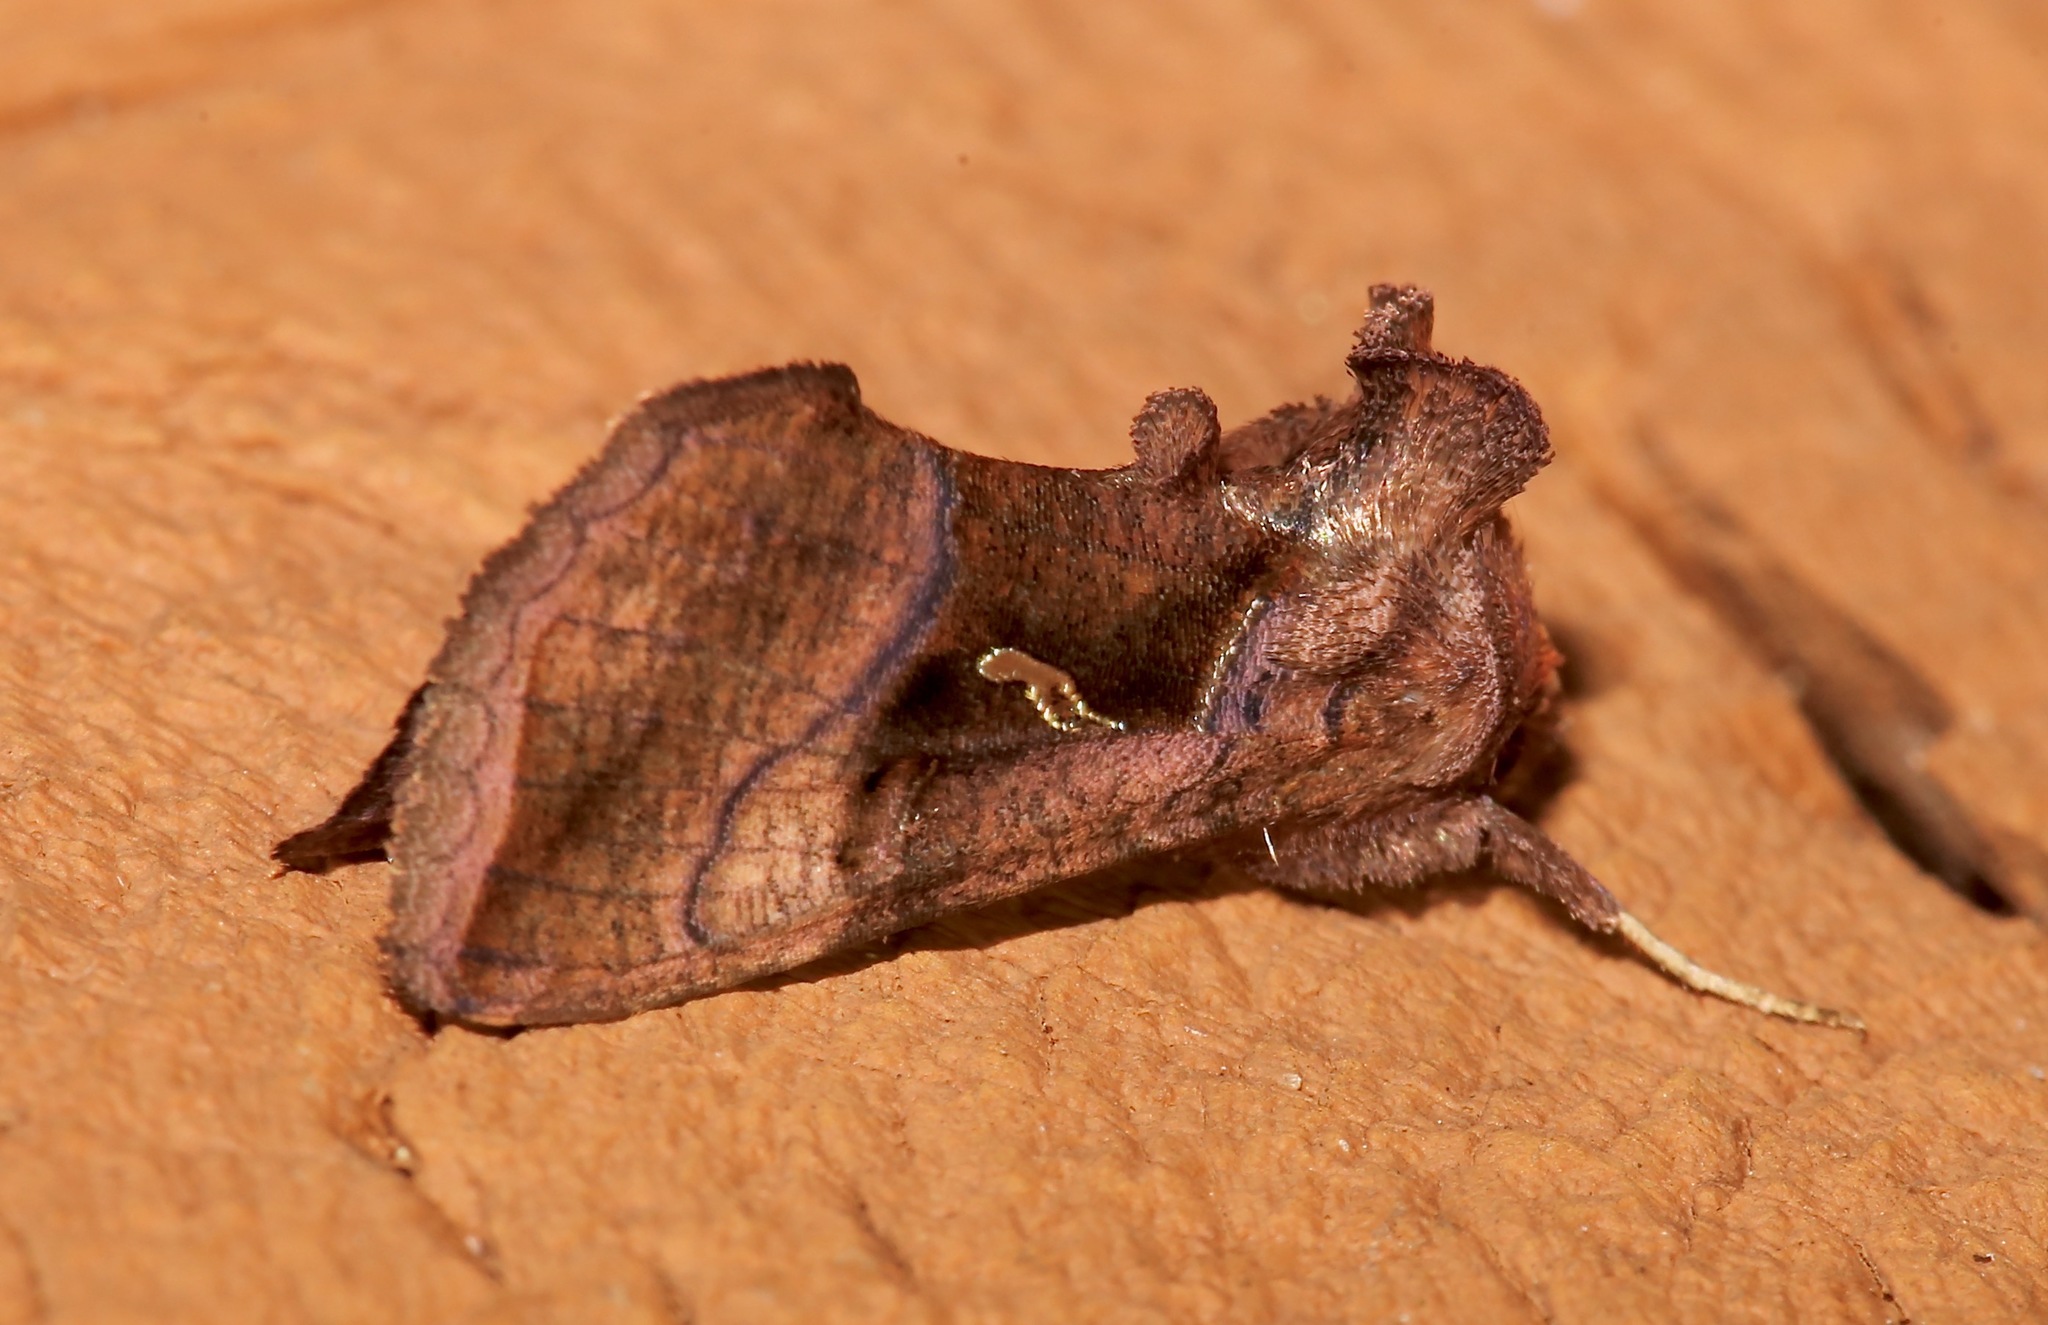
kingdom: Animalia
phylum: Arthropoda
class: Insecta
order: Lepidoptera
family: Noctuidae
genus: Enigmogramma
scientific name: Enigmogramma basigera
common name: Pink-washed looper moth
